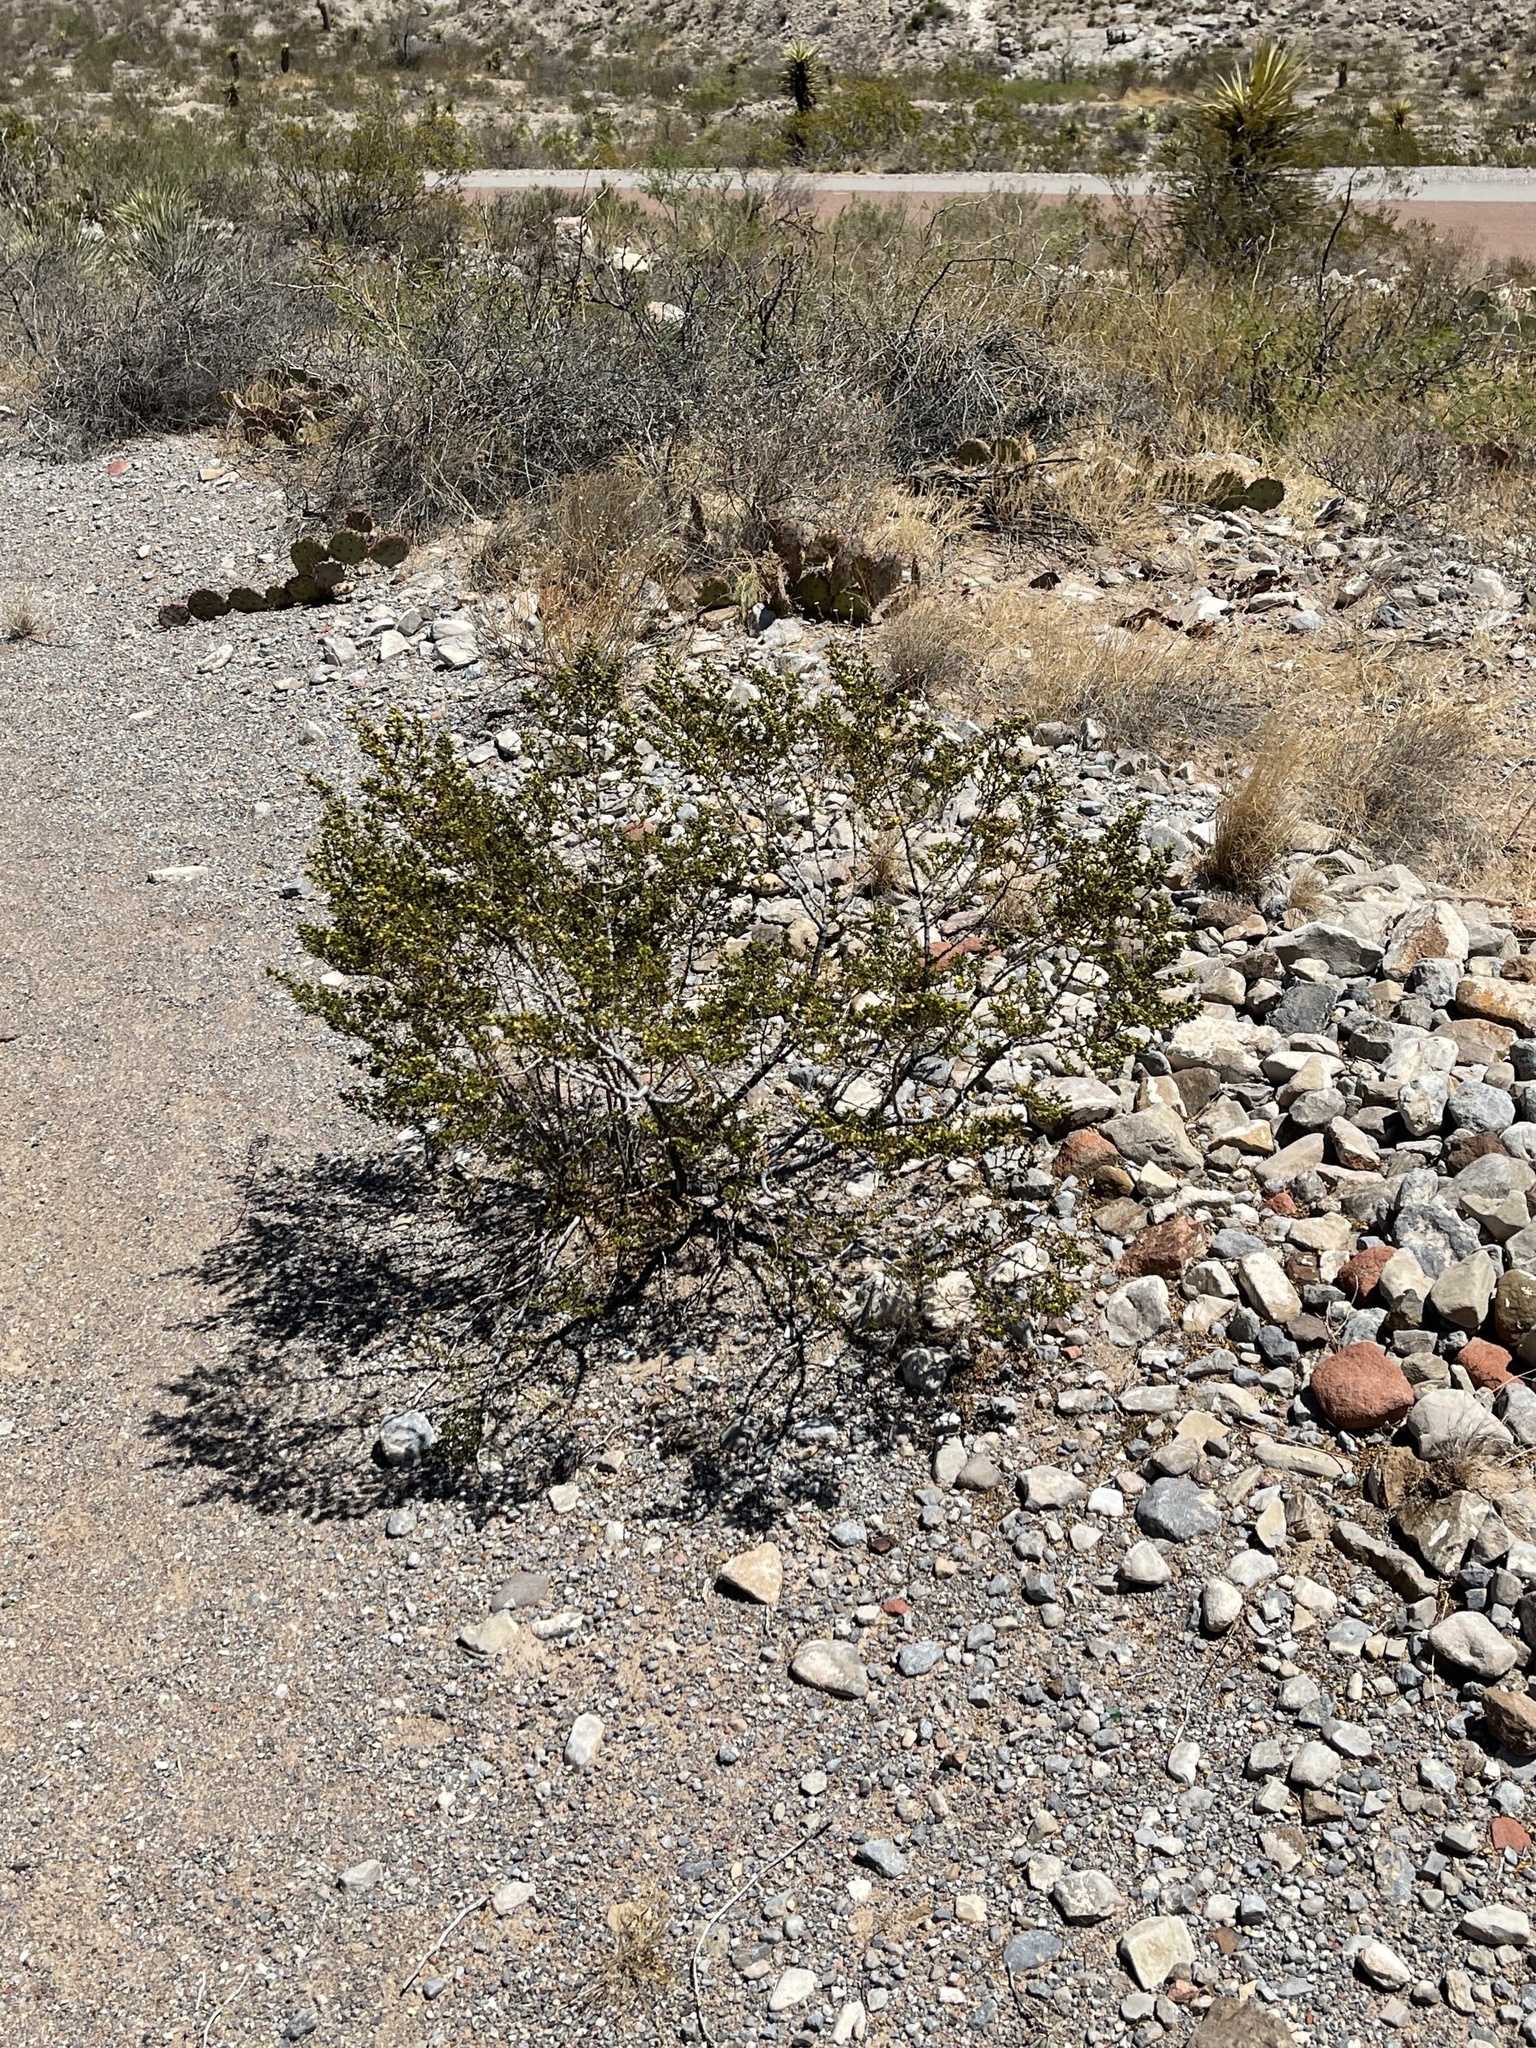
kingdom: Plantae
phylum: Tracheophyta
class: Magnoliopsida
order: Zygophyllales
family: Zygophyllaceae
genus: Larrea
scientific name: Larrea tridentata
